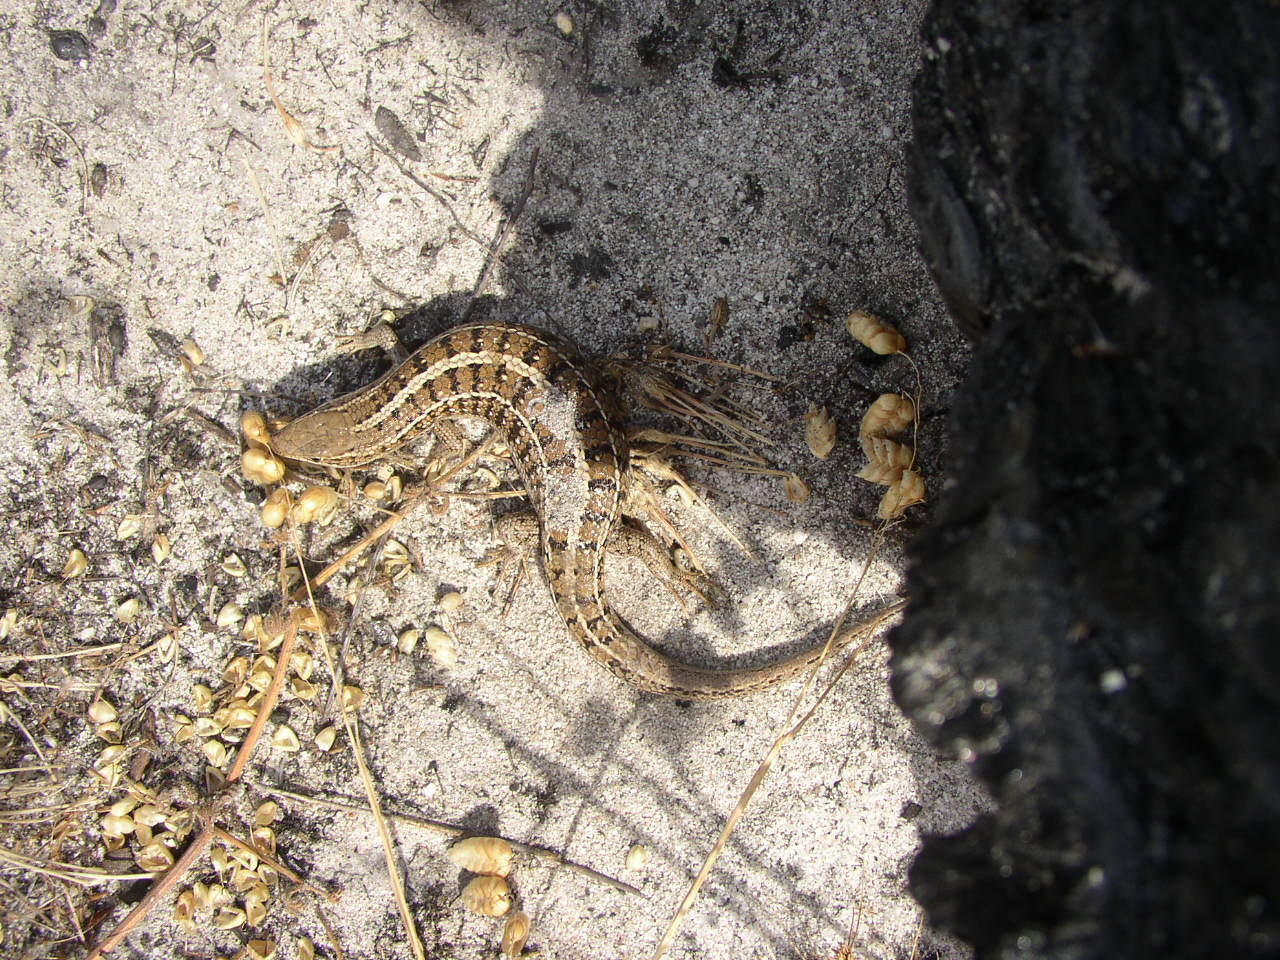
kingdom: Animalia
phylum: Chordata
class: Squamata
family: Scincidae
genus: Trachylepis
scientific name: Trachylepis capensis
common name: Cape skink
